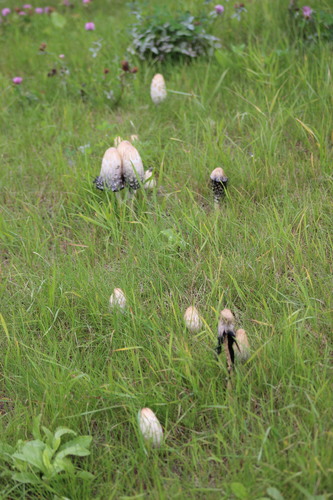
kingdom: Fungi
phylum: Basidiomycota
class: Agaricomycetes
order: Agaricales
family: Agaricaceae
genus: Coprinus
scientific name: Coprinus comatus
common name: Lawyer's wig
